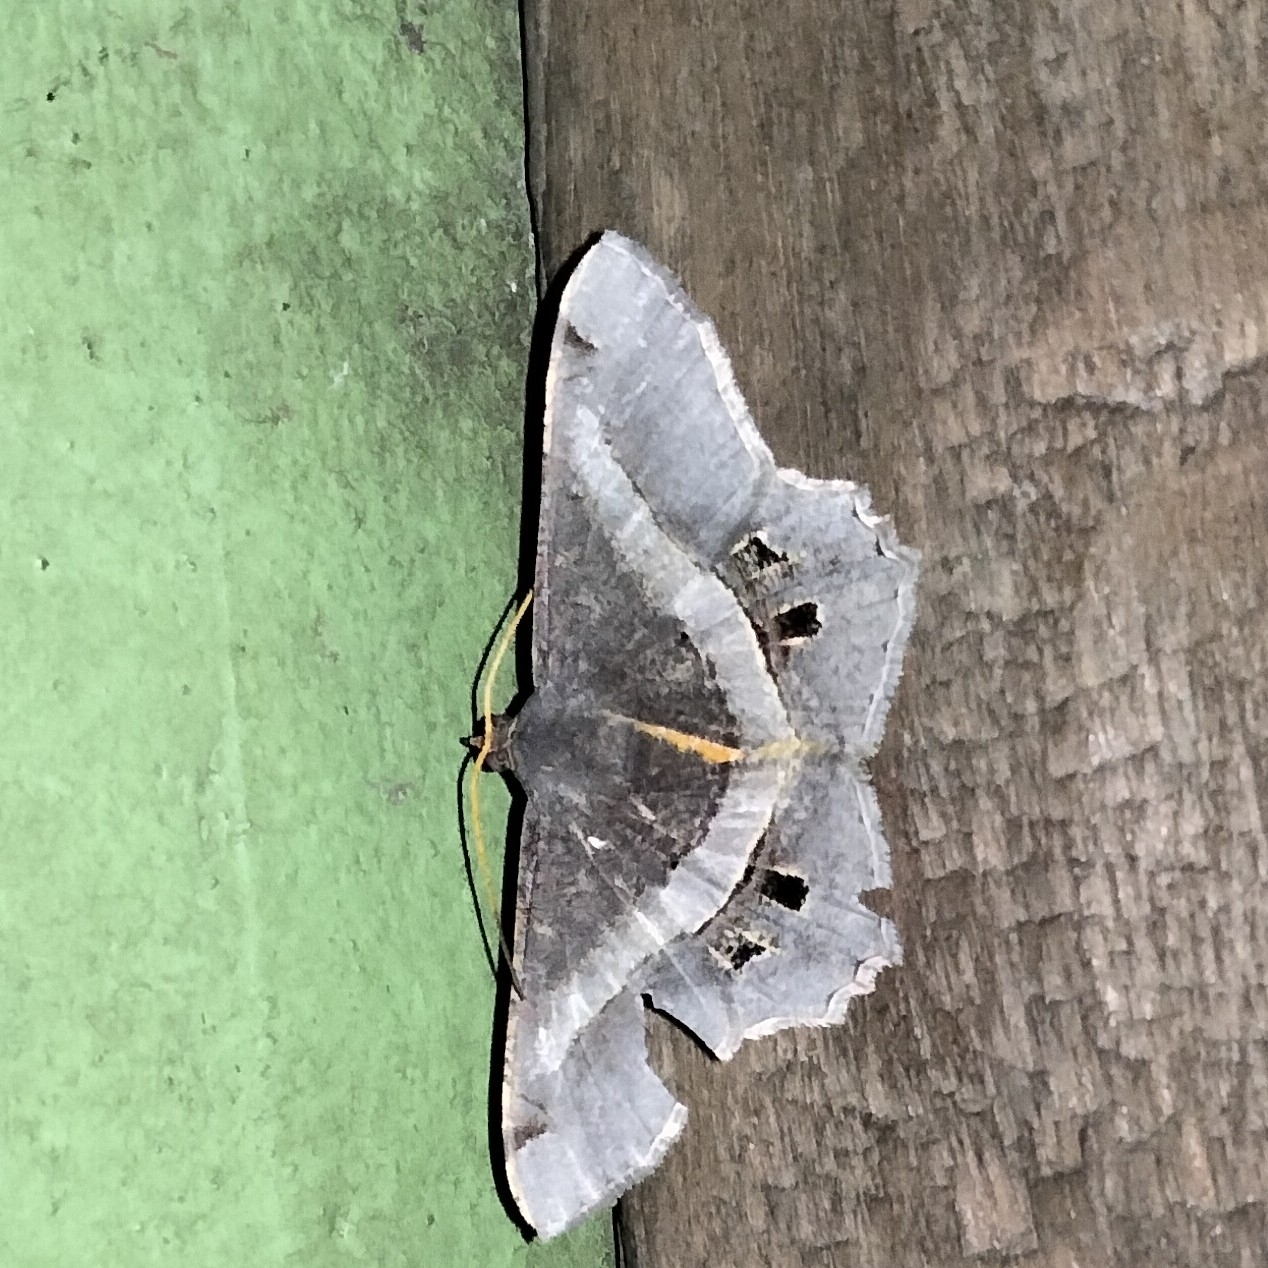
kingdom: Animalia
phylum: Arthropoda
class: Insecta
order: Lepidoptera
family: Geometridae
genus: Chiasmia
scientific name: Chiasmia eleonora
